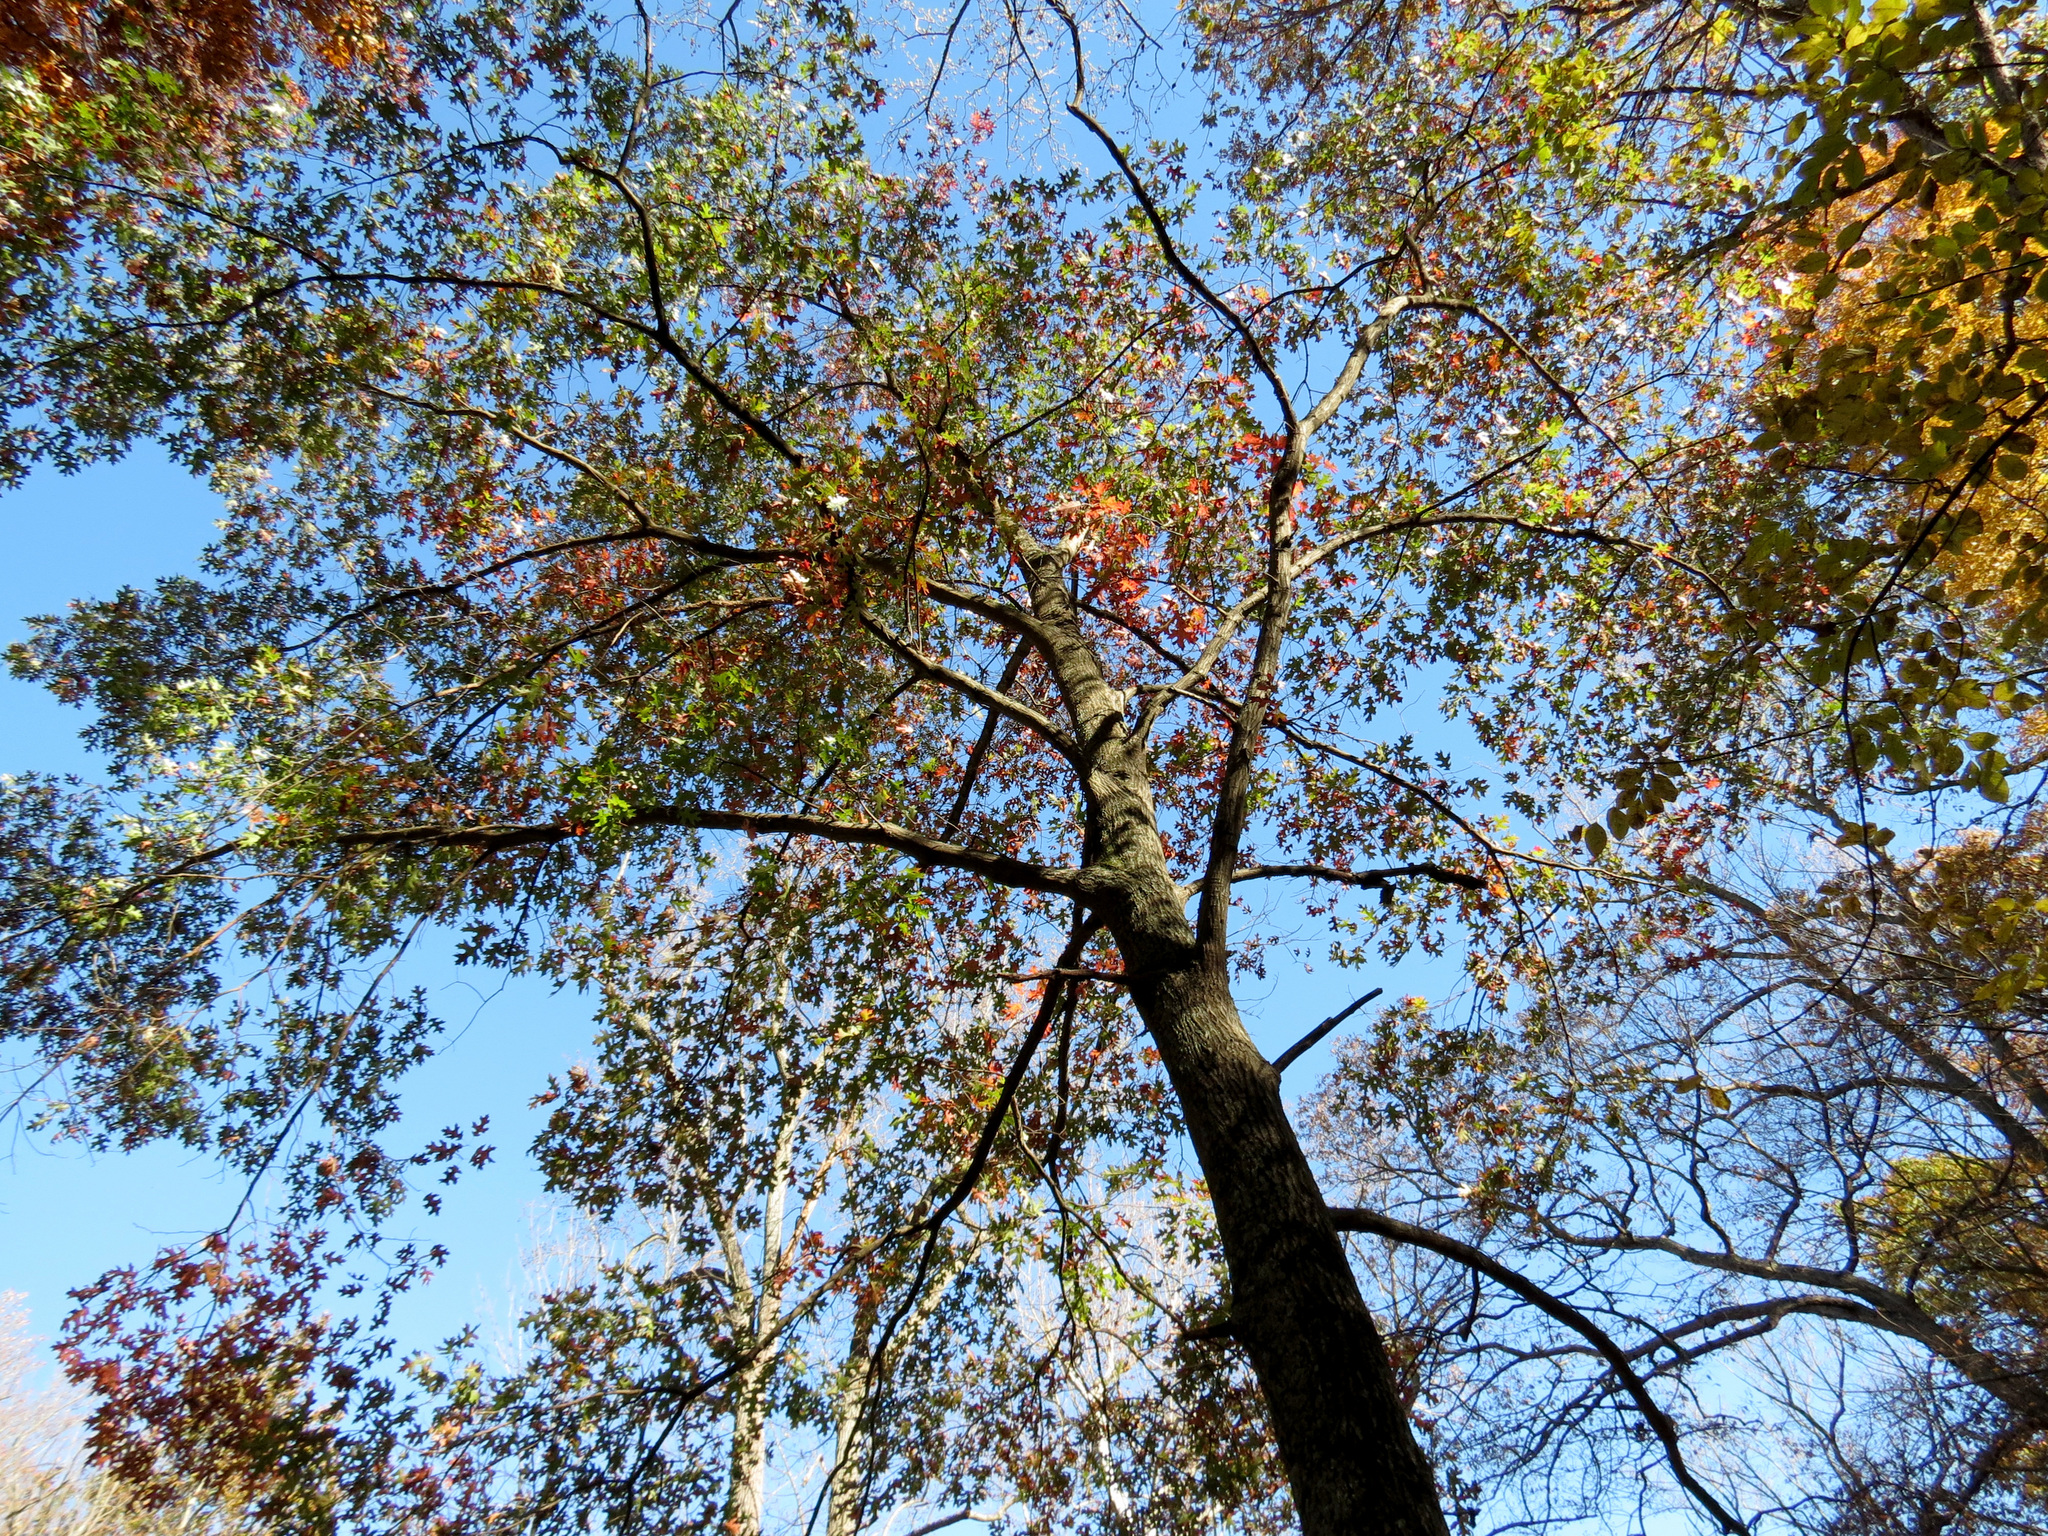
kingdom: Plantae
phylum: Tracheophyta
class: Magnoliopsida
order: Fagales
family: Fagaceae
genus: Quercus
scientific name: Quercus coccinea
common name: Scarlet oak
